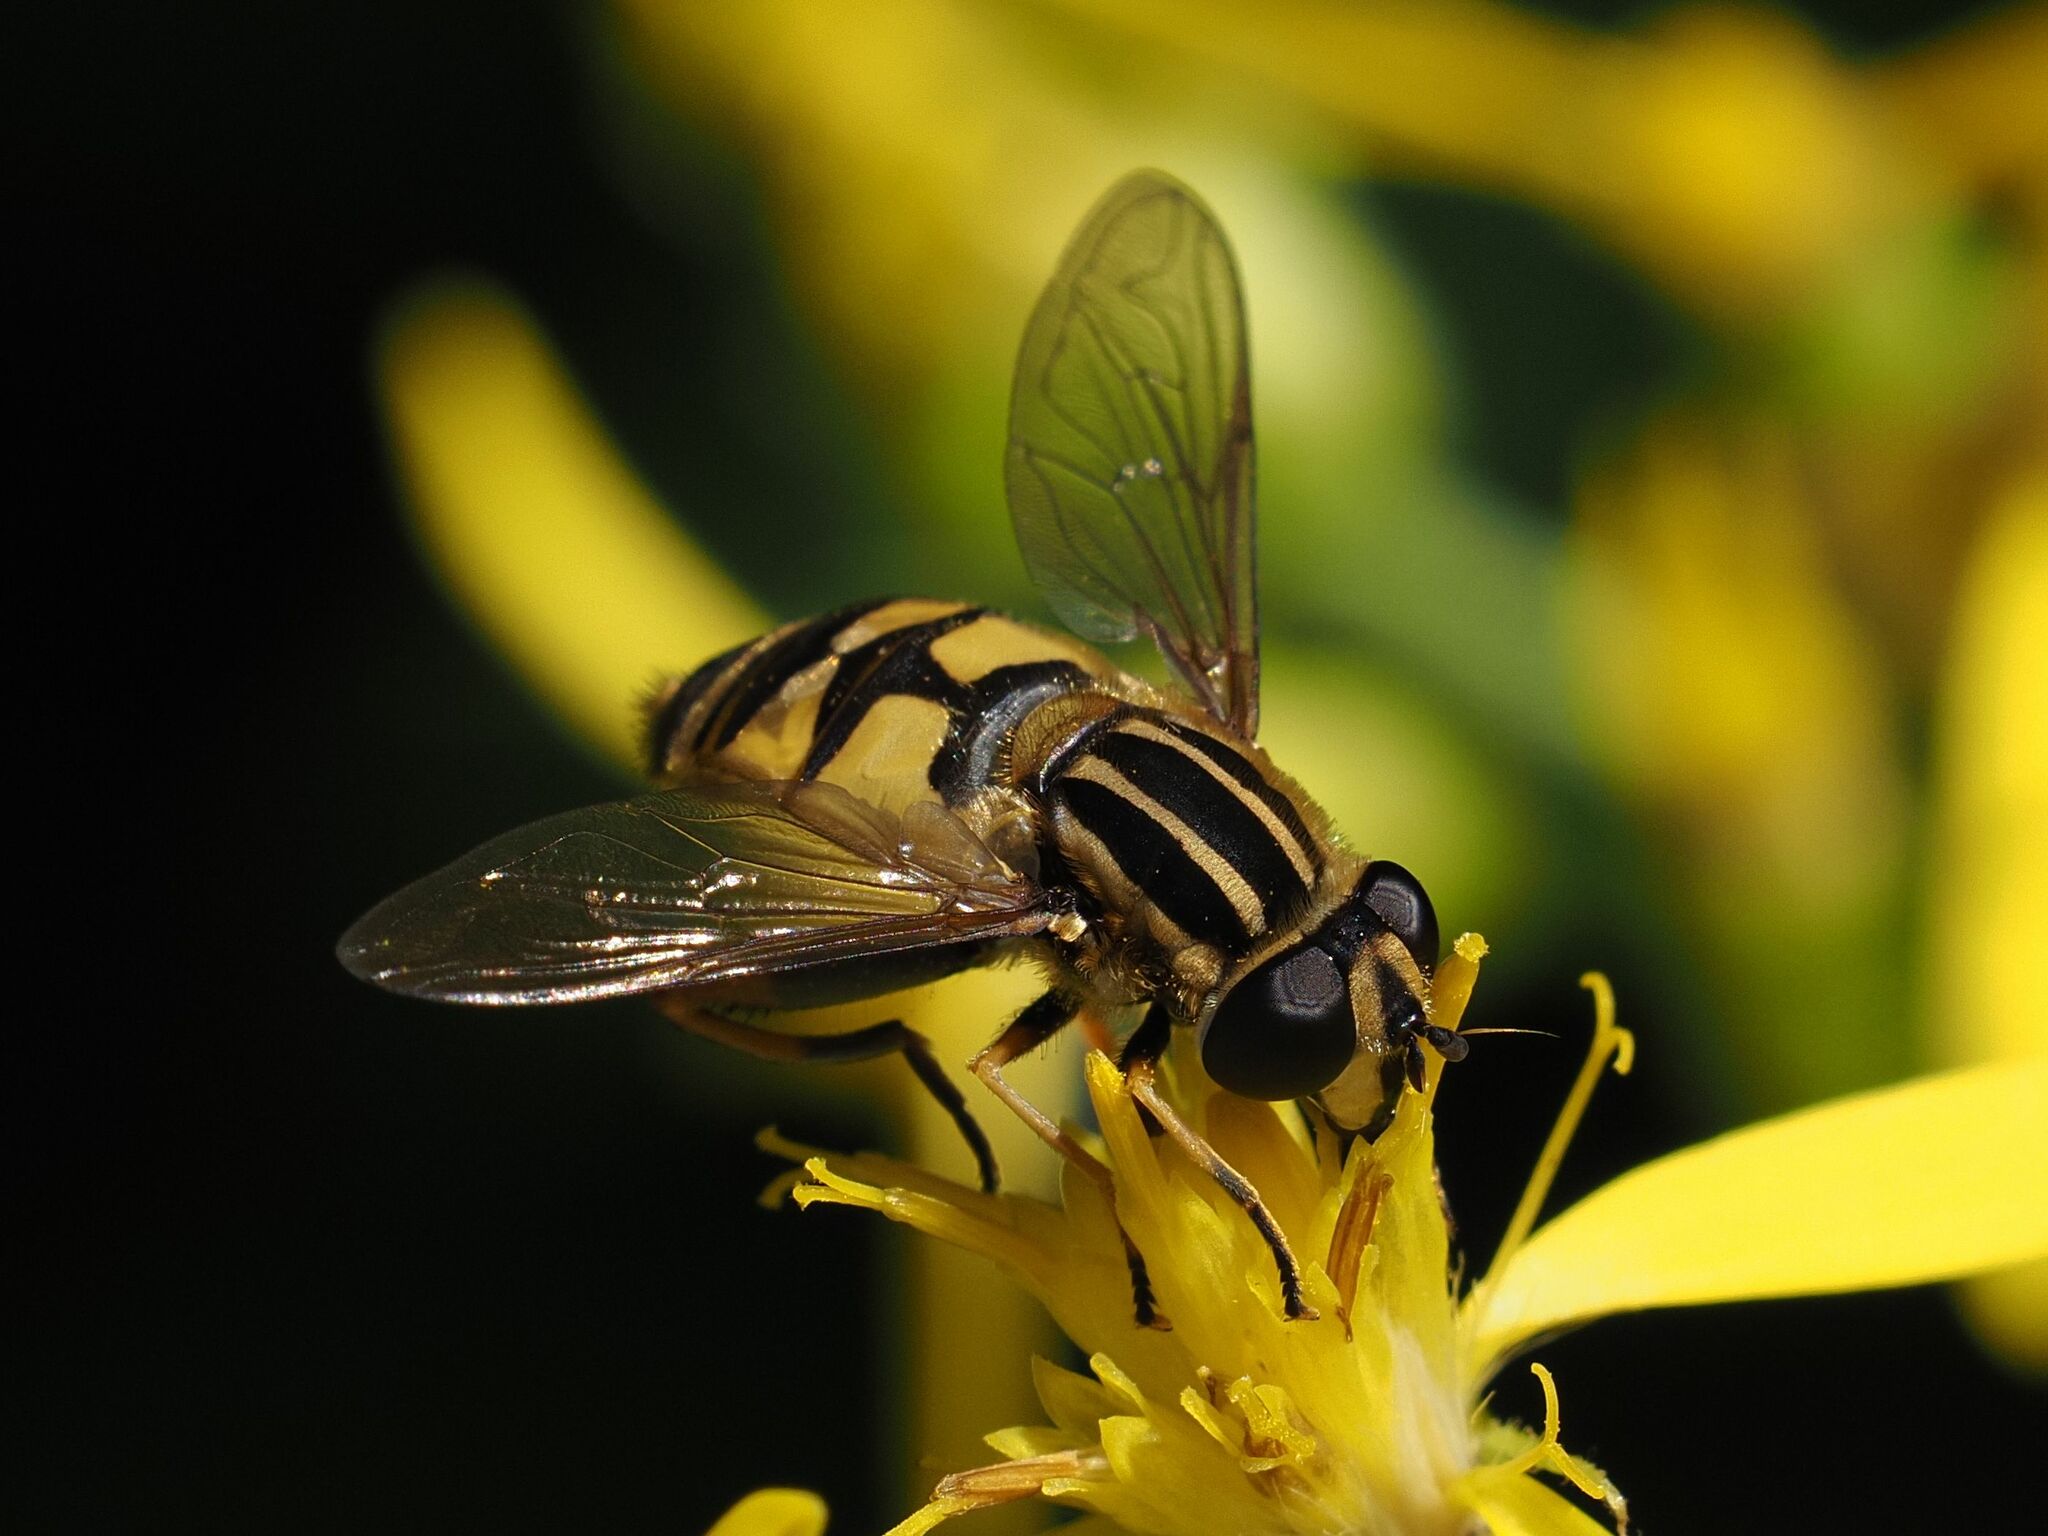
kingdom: Animalia
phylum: Arthropoda
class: Insecta
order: Diptera
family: Syrphidae
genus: Helophilus
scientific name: Helophilus pendulus
